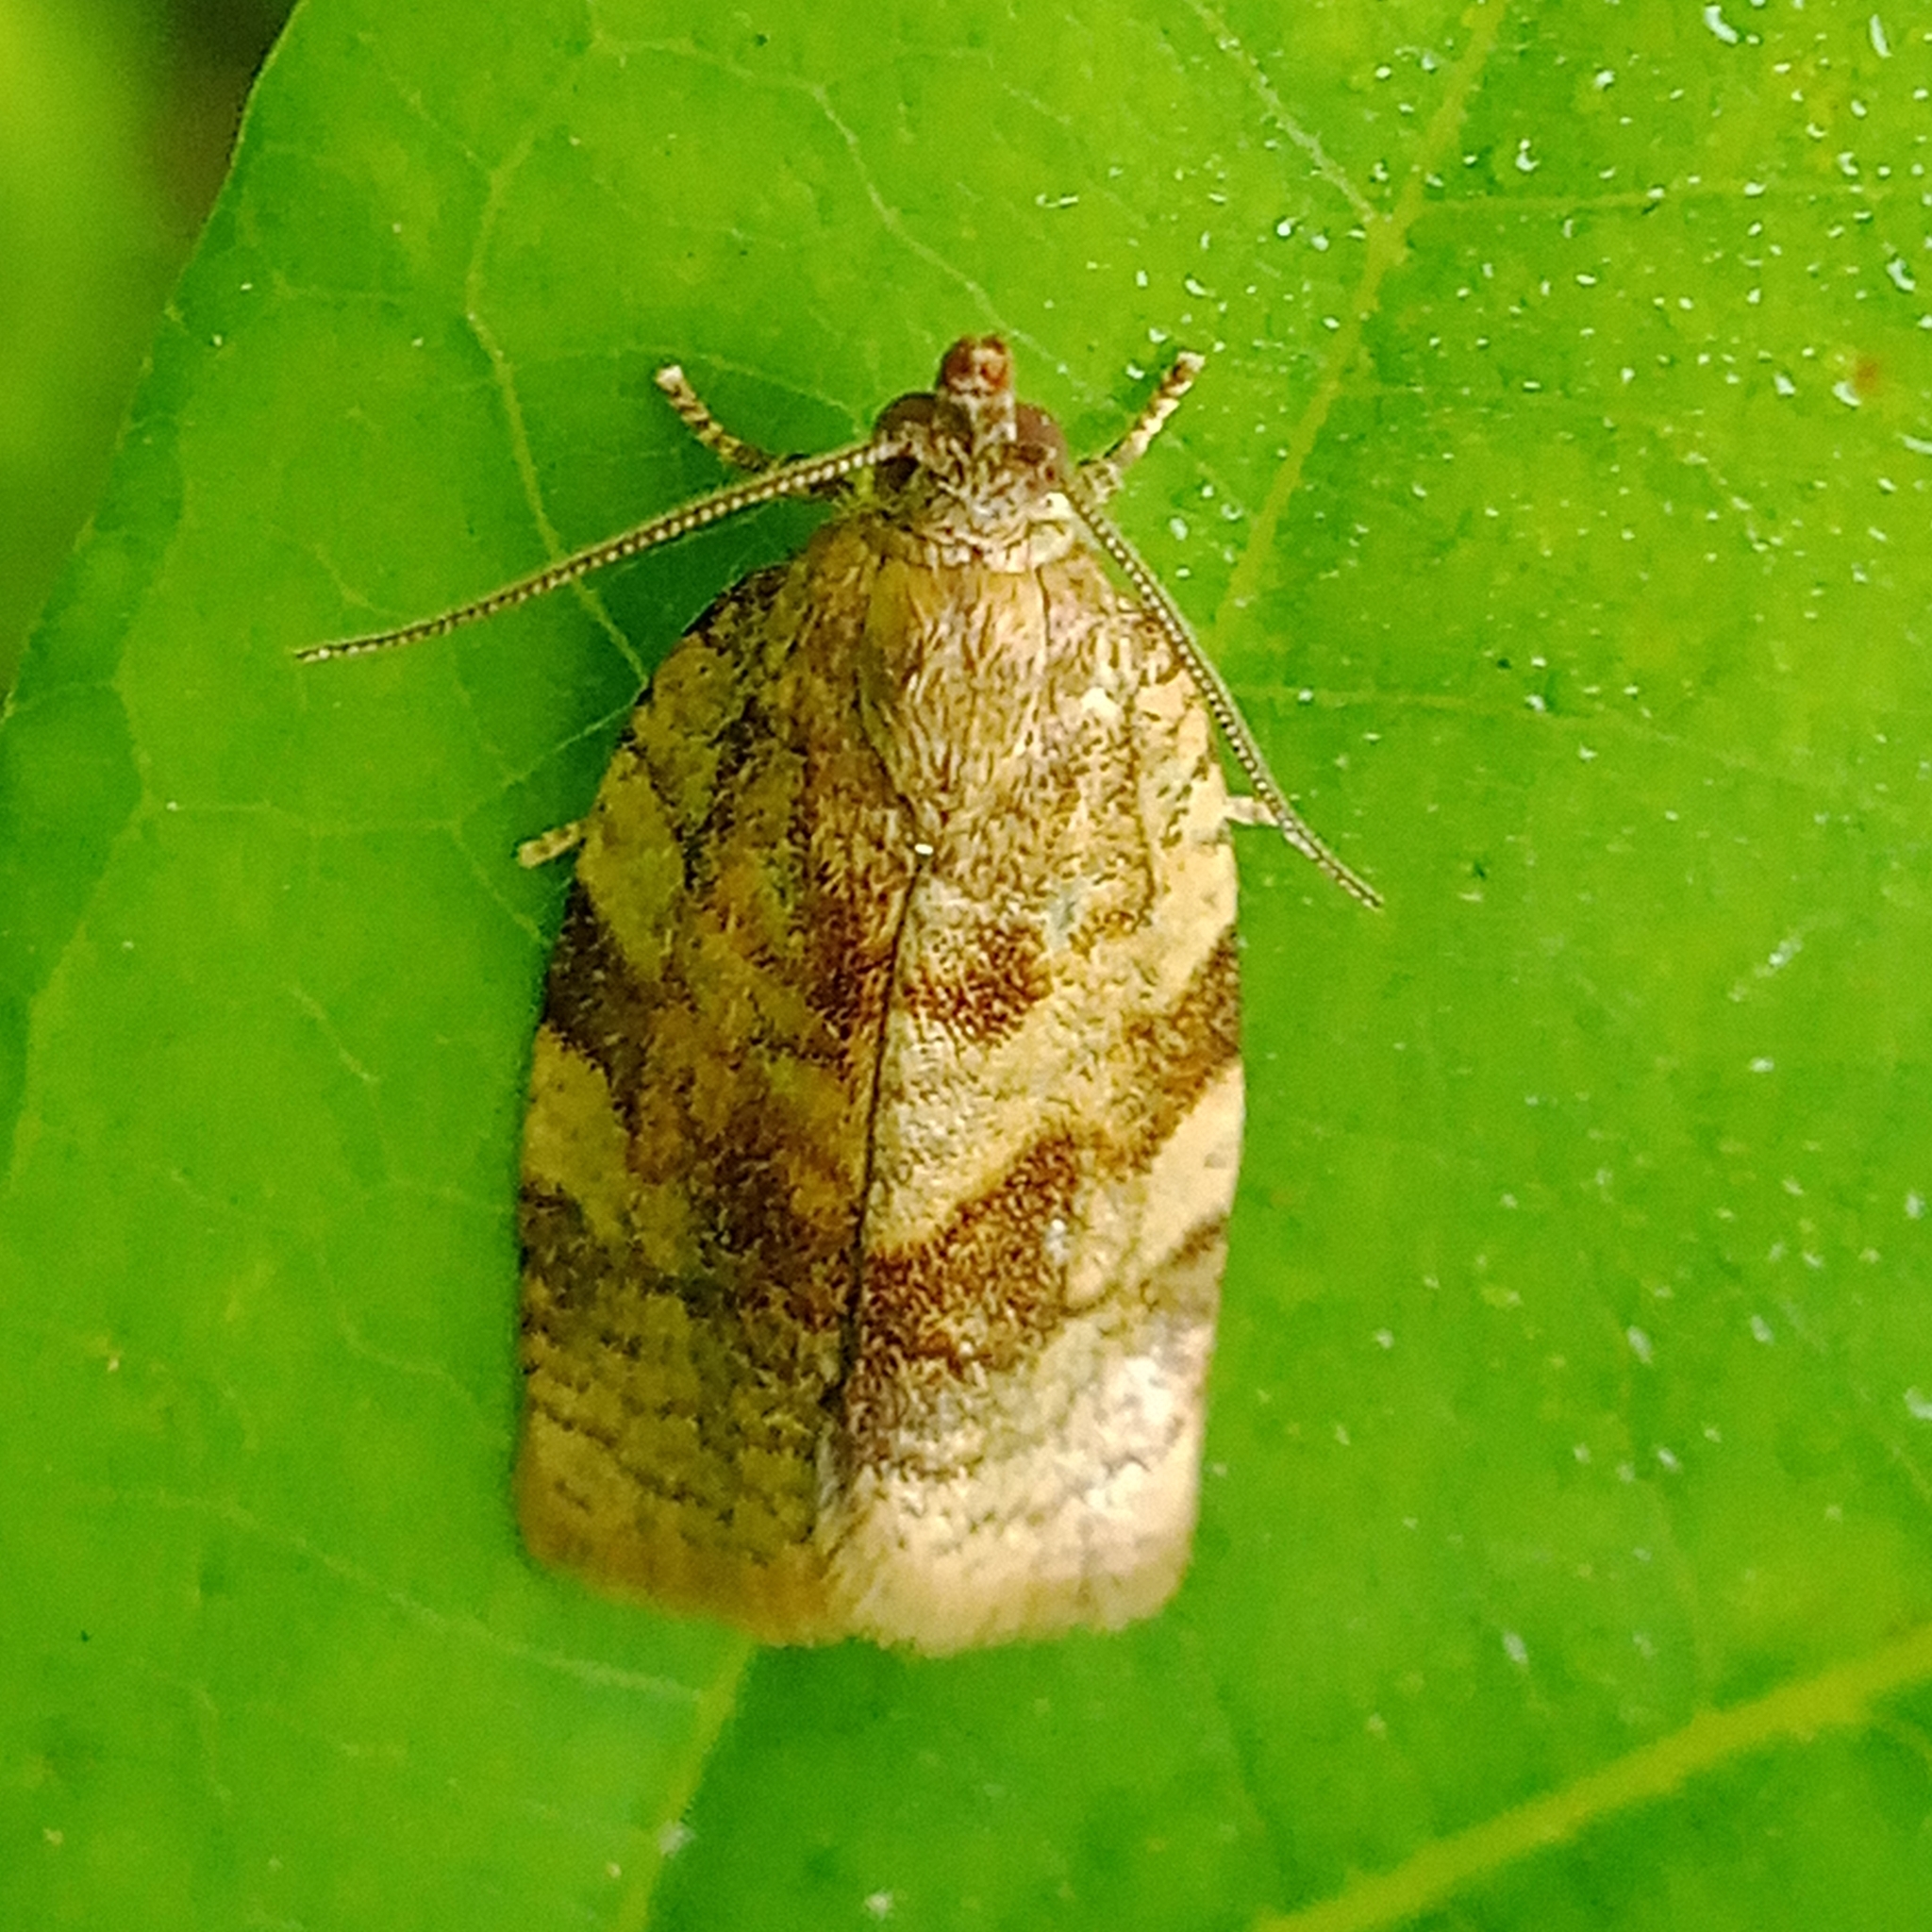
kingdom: Animalia
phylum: Arthropoda
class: Insecta
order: Lepidoptera
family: Tortricidae
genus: Choristoneura
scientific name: Choristoneura diversana
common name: Forest tortrix
